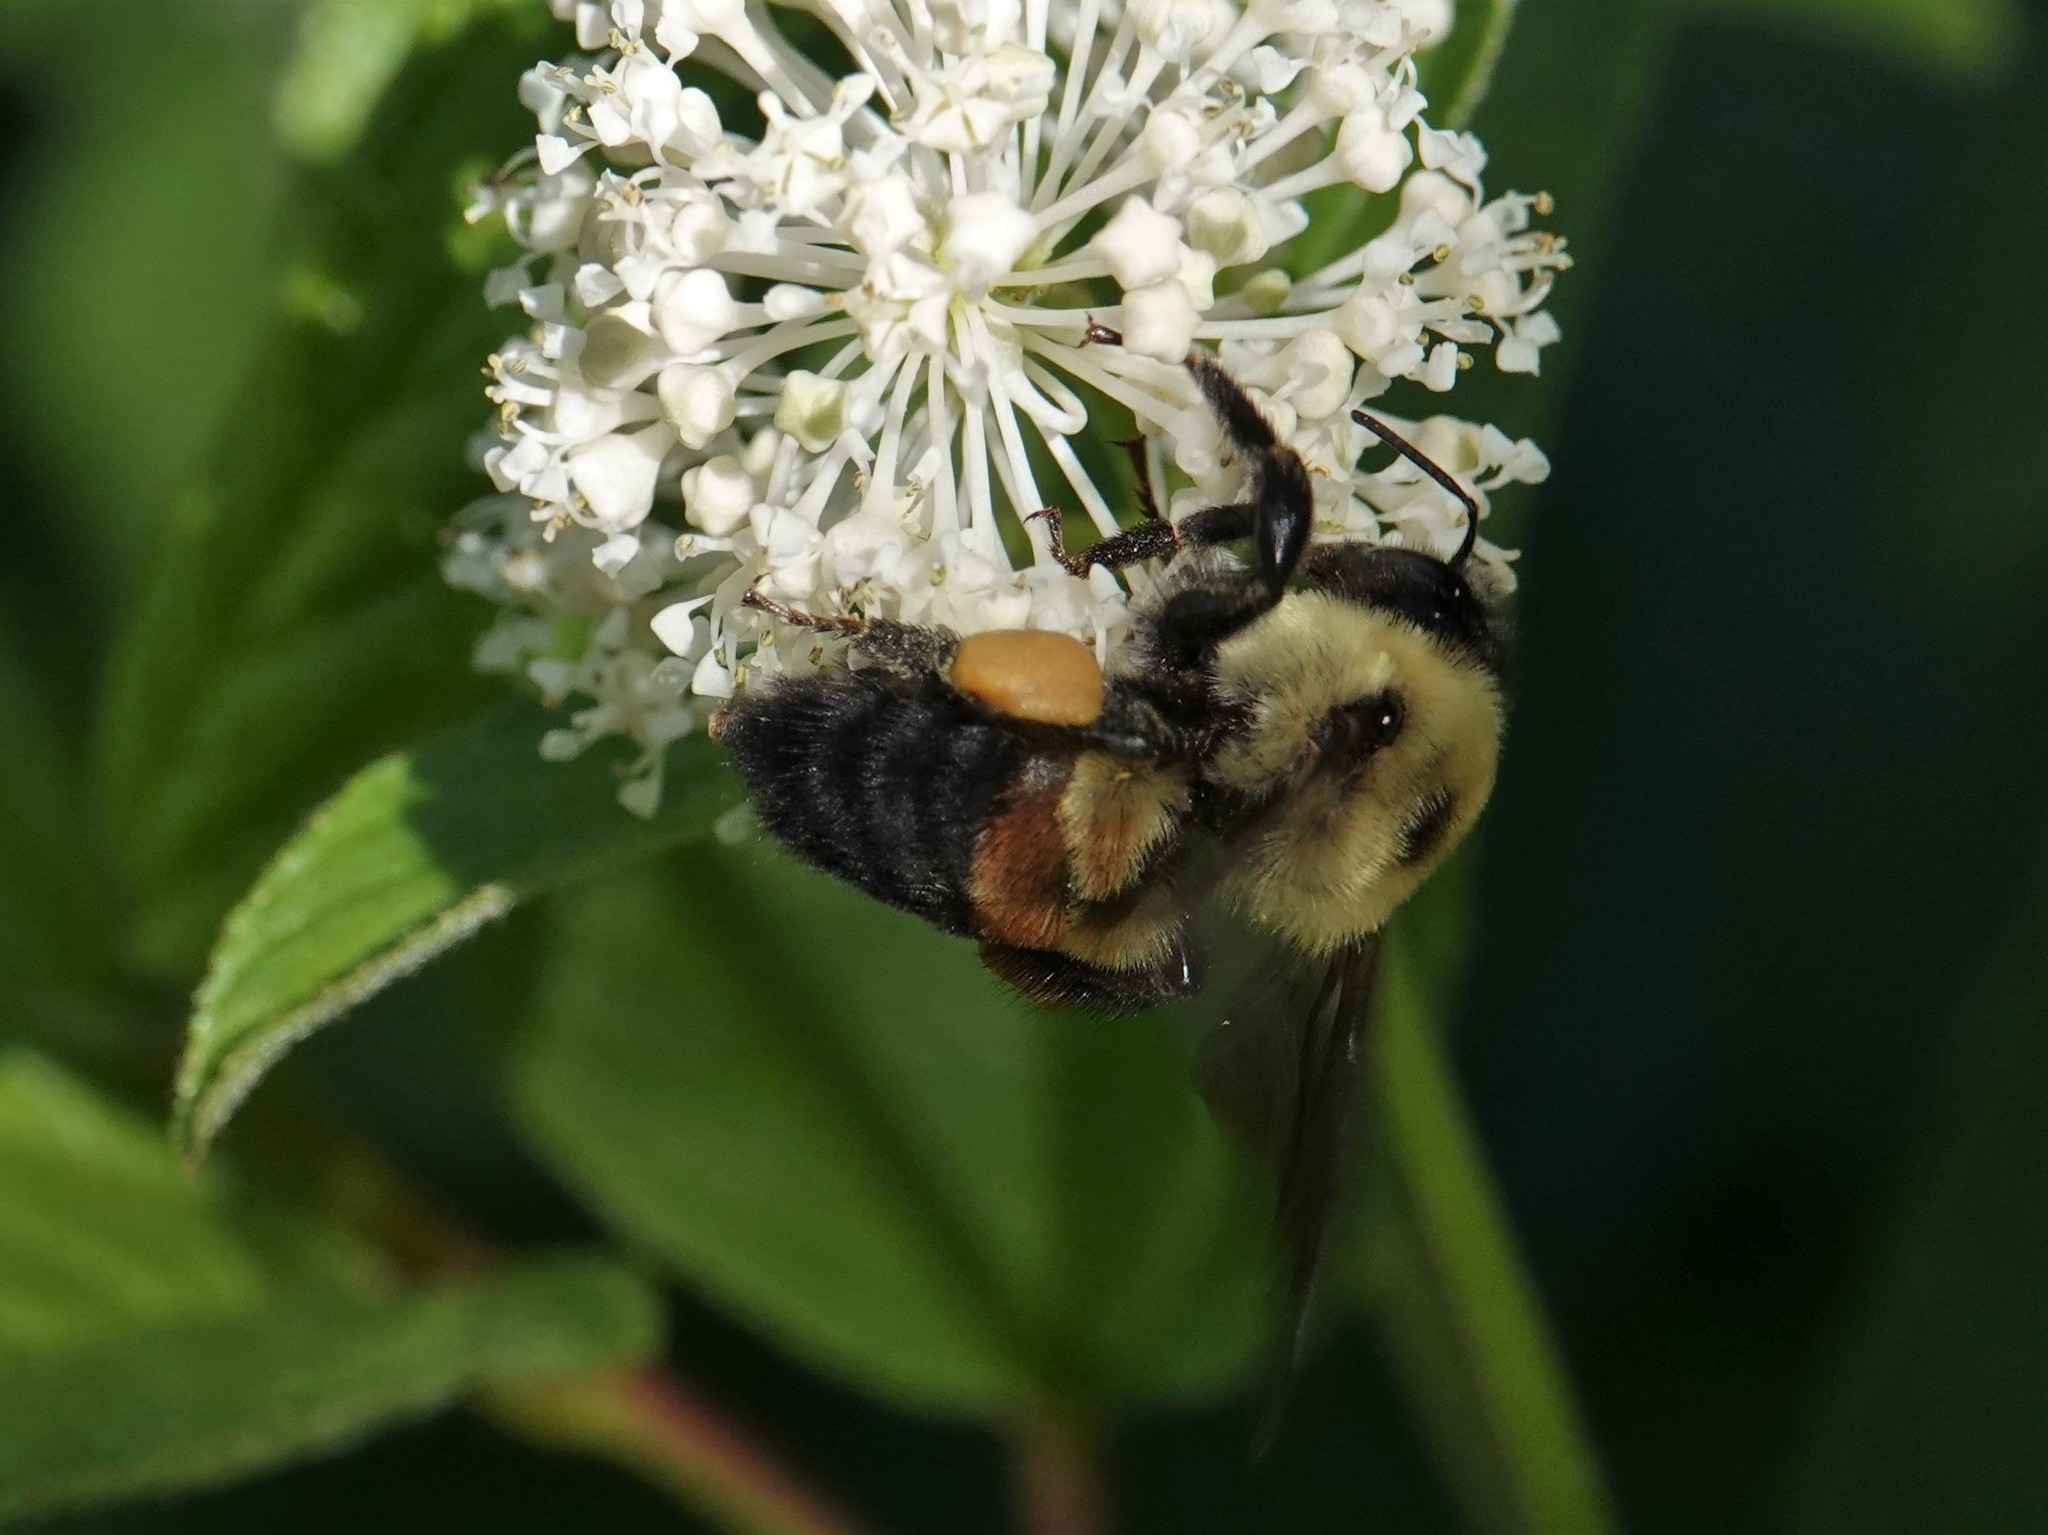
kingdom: Animalia
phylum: Arthropoda
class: Insecta
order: Hymenoptera
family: Apidae
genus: Bombus
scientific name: Bombus griseocollis
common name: Brown-belted bumble bee
